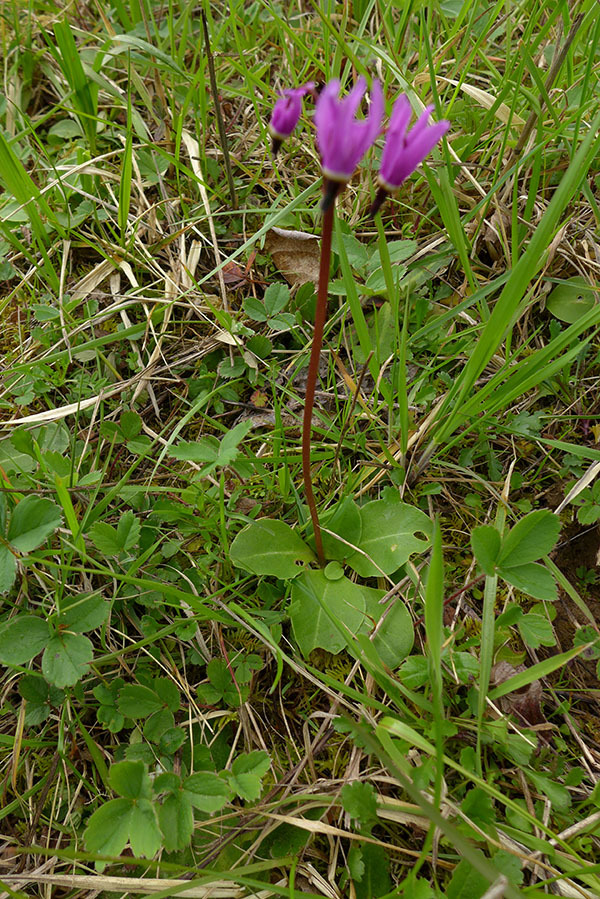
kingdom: Plantae
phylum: Tracheophyta
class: Magnoliopsida
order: Ericales
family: Primulaceae
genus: Dodecatheon
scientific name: Dodecatheon hendersonii
